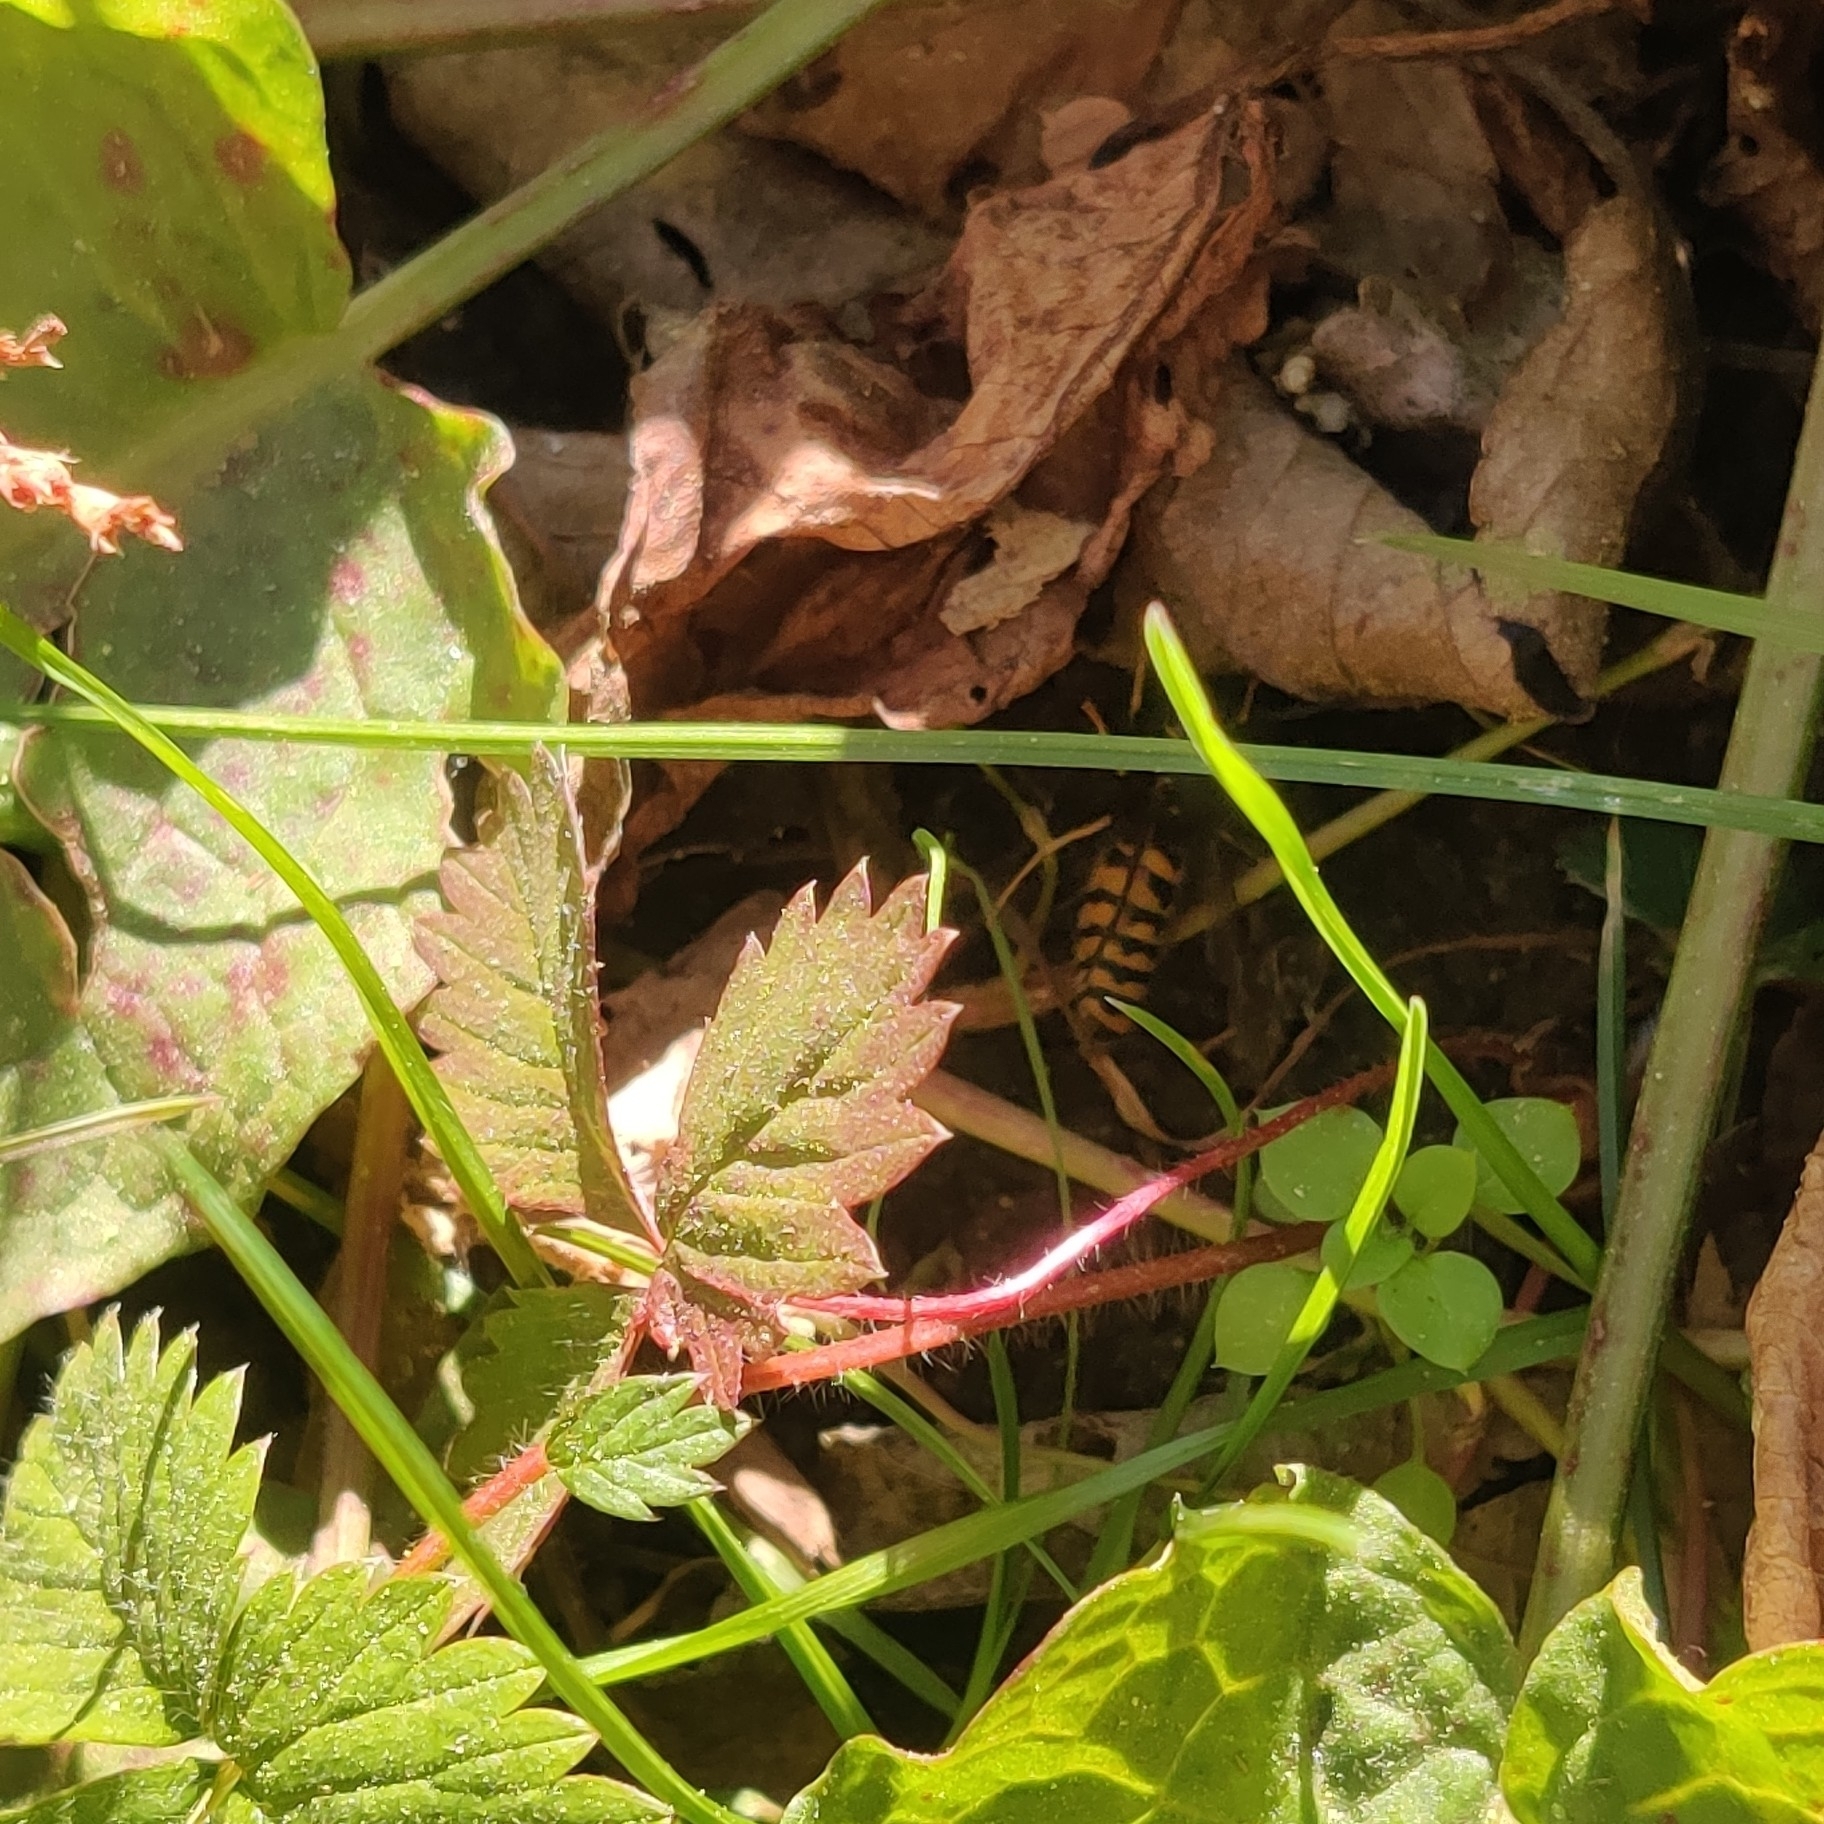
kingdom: Animalia
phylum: Arthropoda
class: Insecta
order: Hymenoptera
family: Vespidae
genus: Vespula
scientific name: Vespula structor
